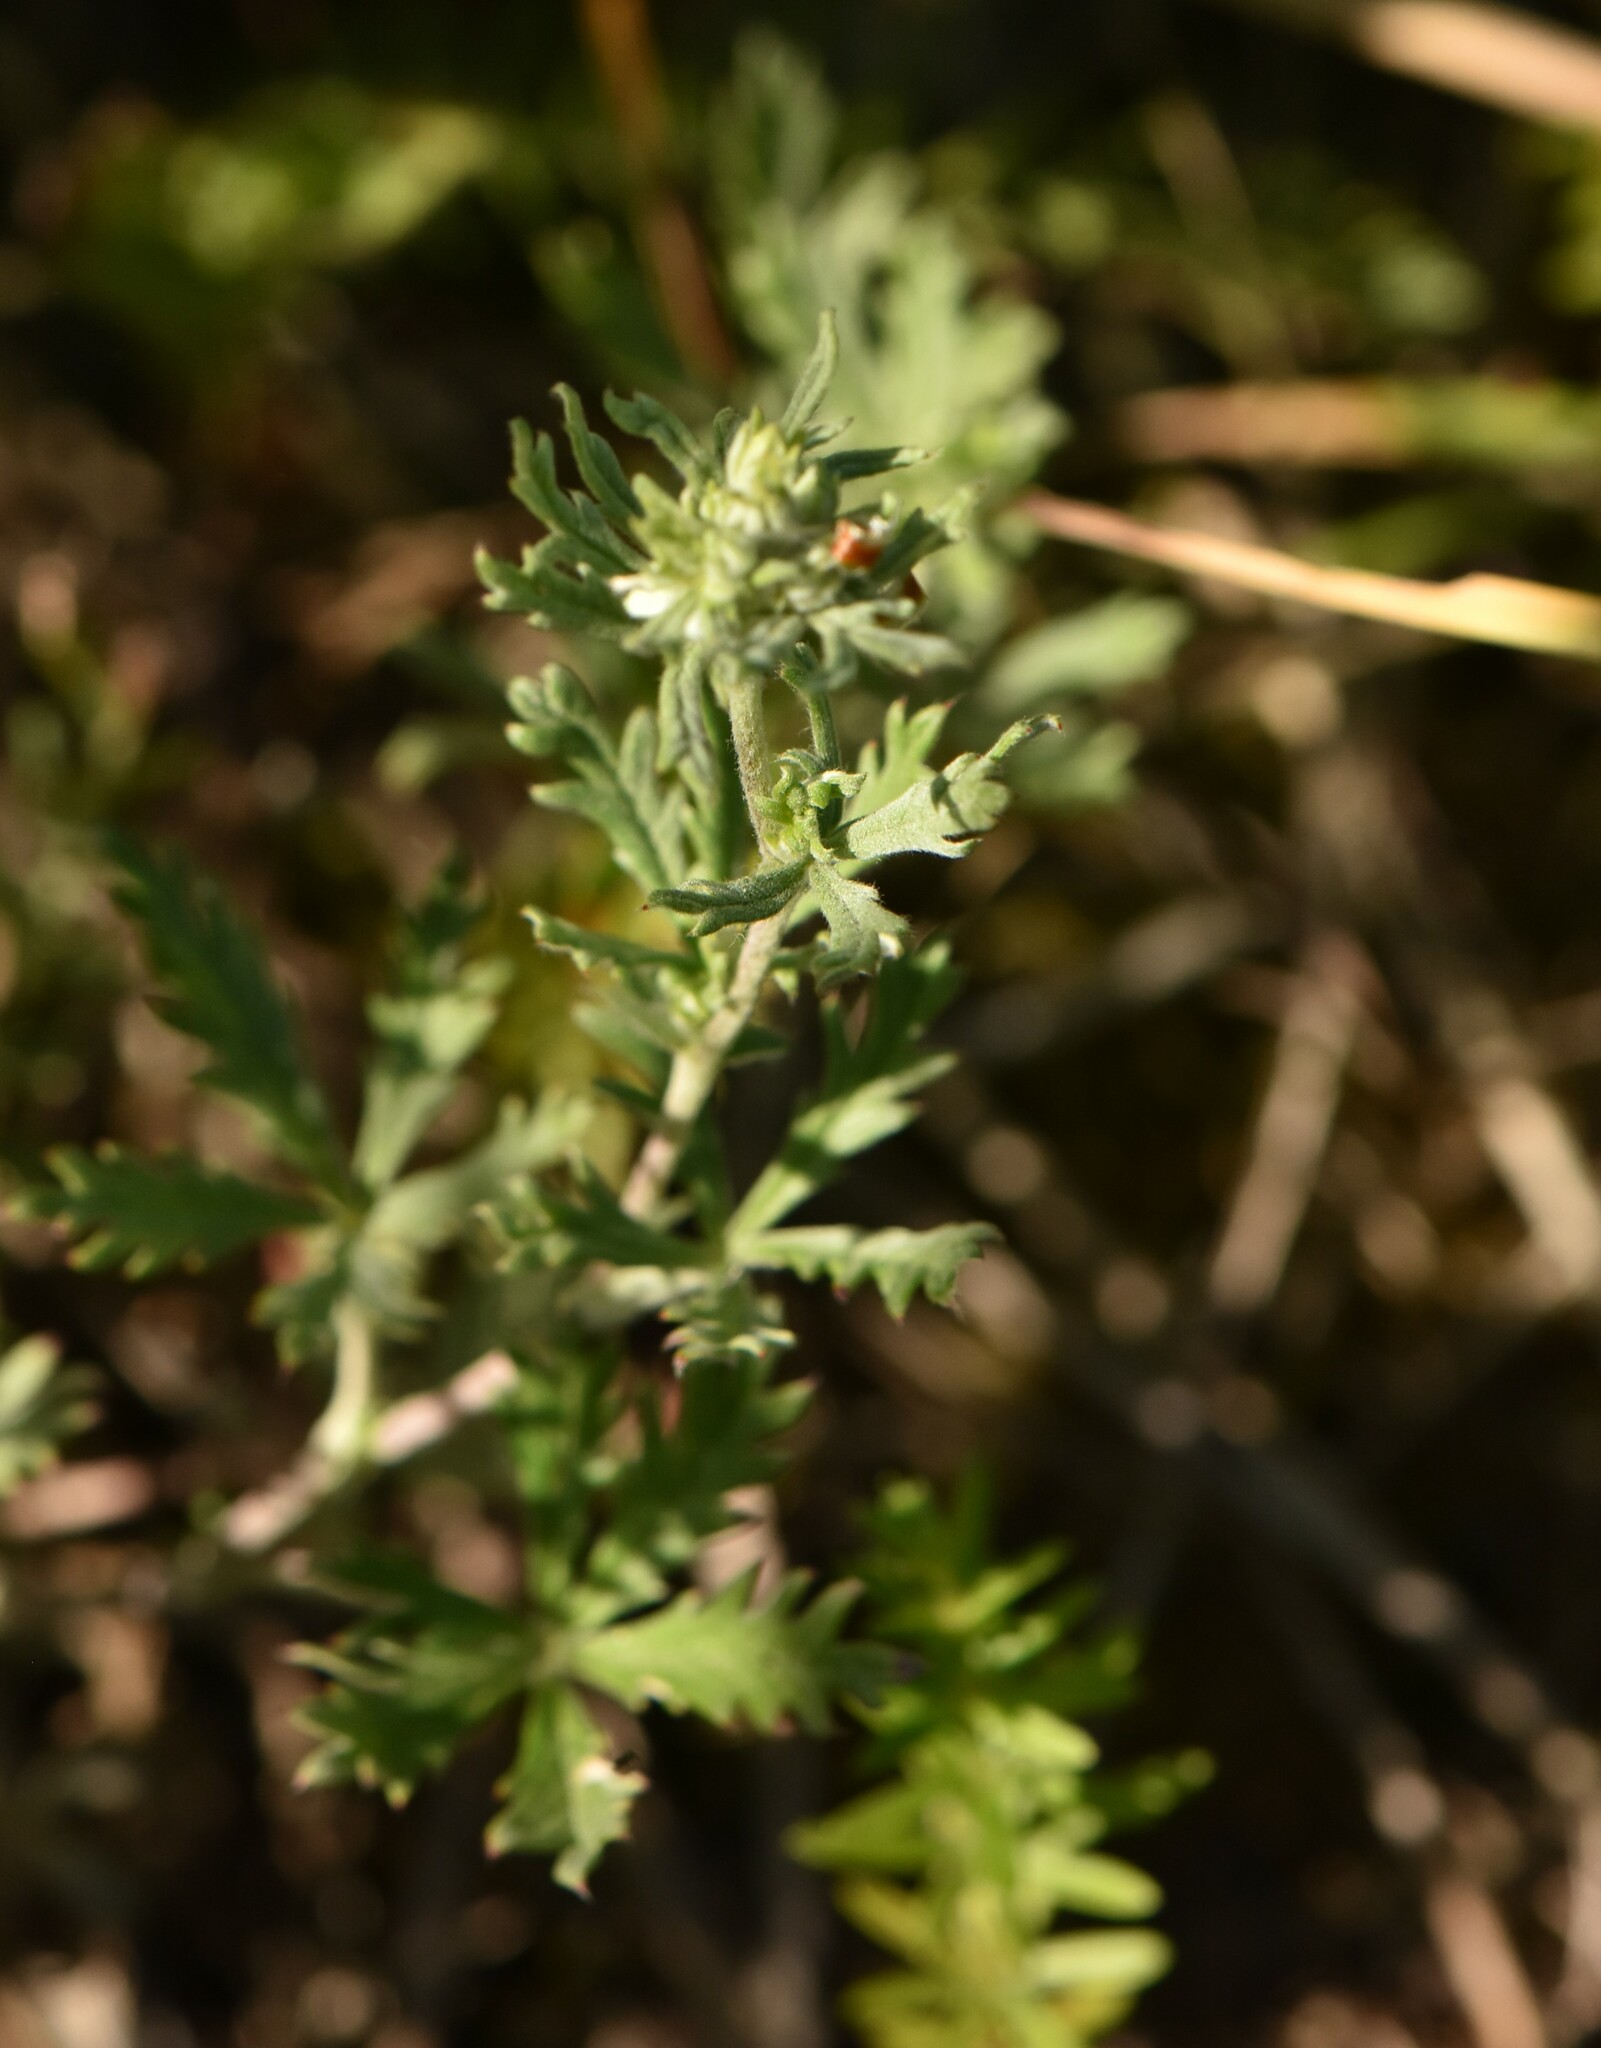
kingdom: Plantae
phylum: Tracheophyta
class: Magnoliopsida
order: Rosales
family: Rosaceae
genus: Potentilla
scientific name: Potentilla argentea
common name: Hoary cinquefoil
